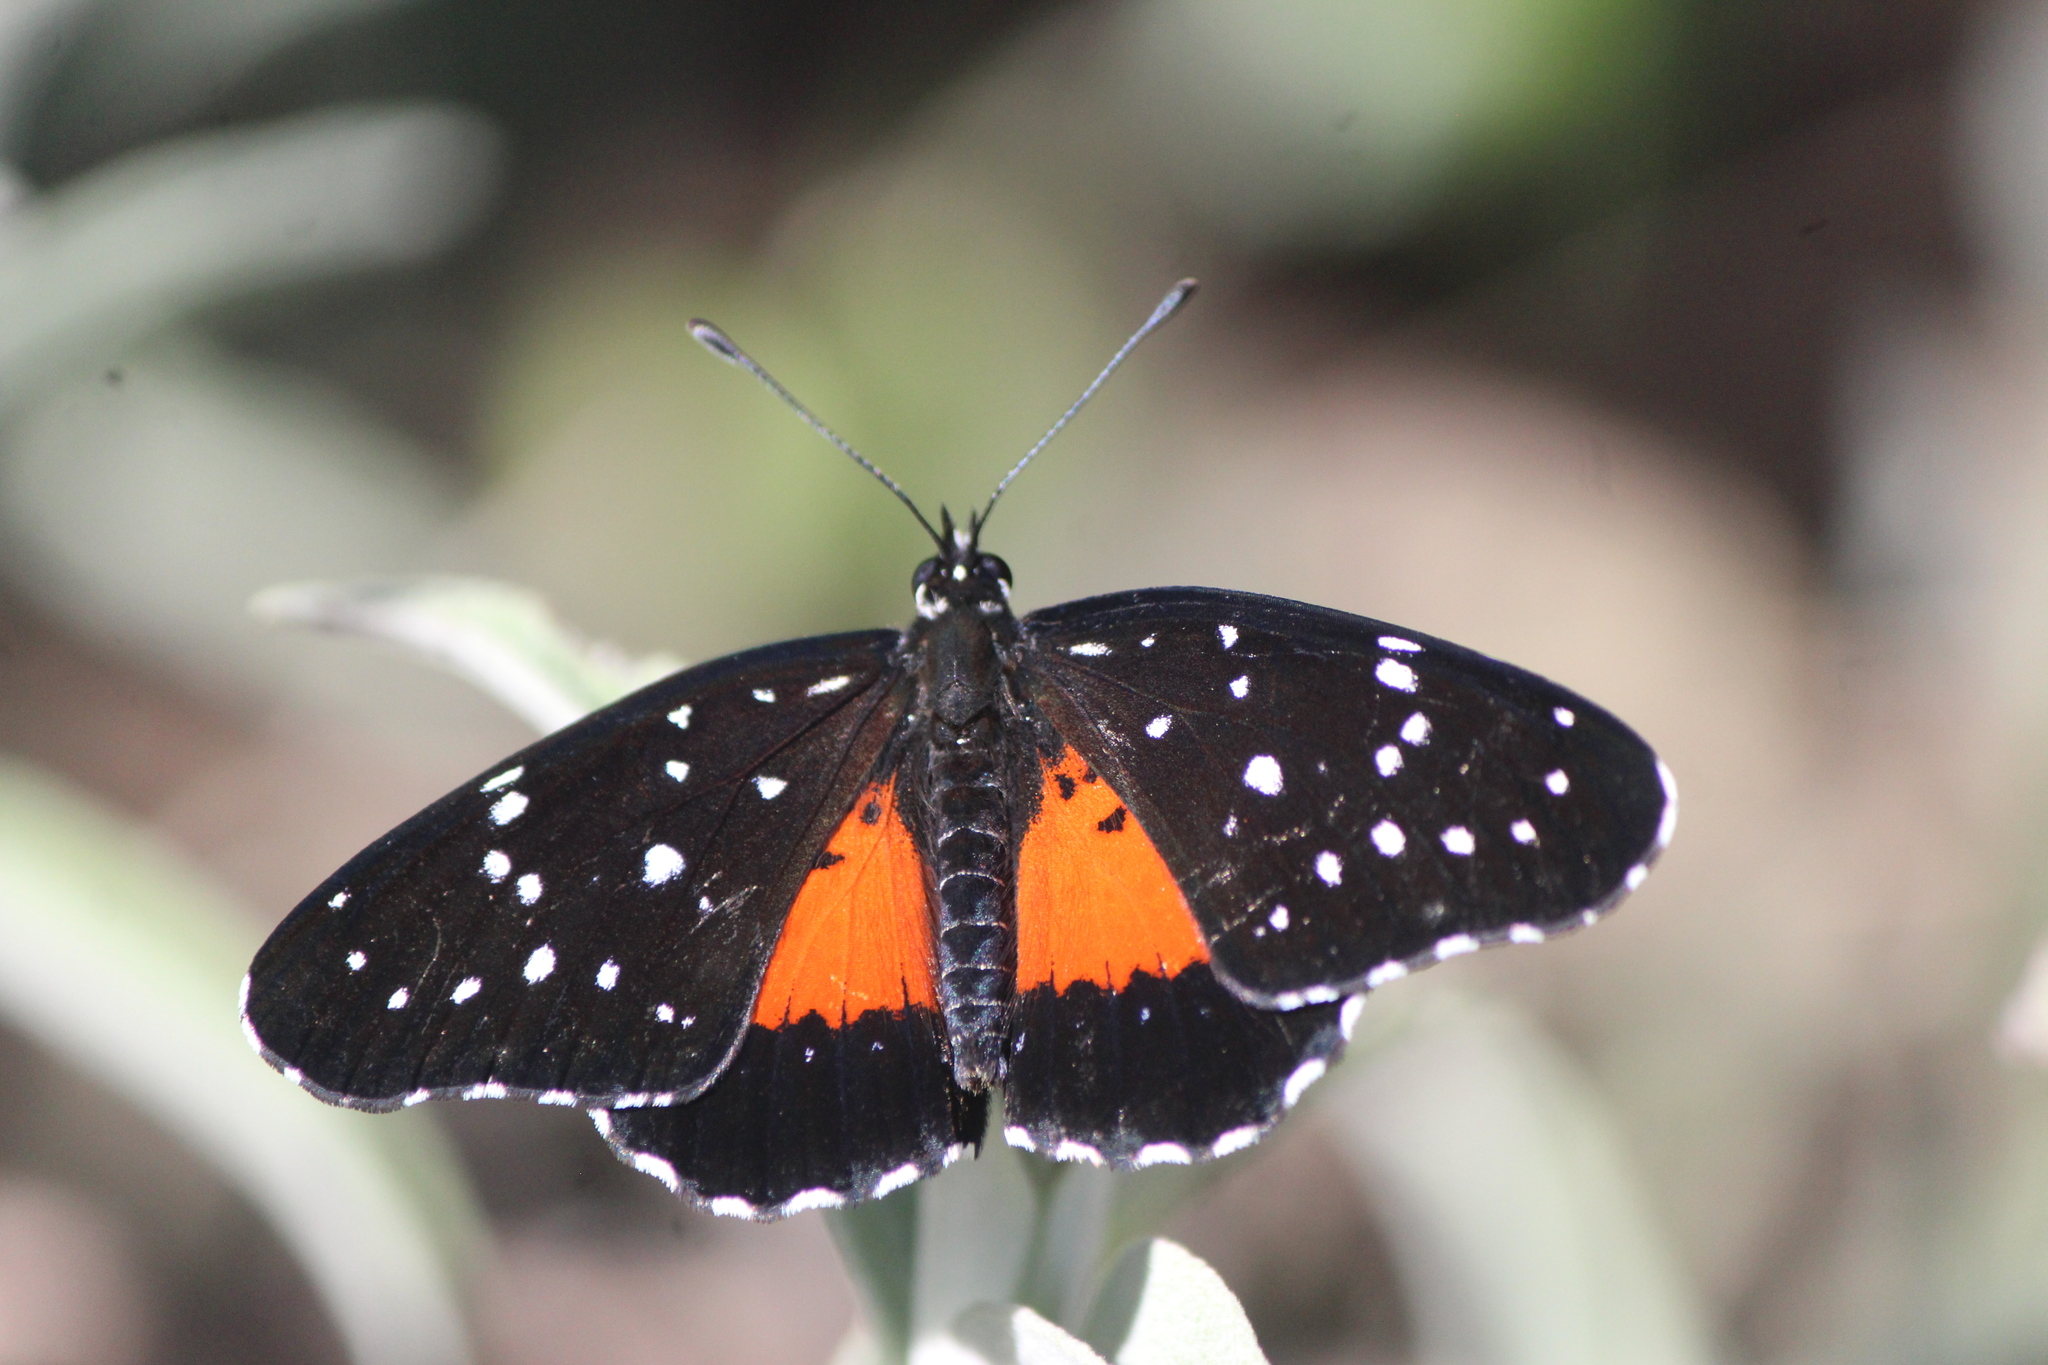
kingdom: Animalia
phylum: Arthropoda
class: Insecta
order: Lepidoptera
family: Nymphalidae
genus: Chlosyne
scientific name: Chlosyne janais
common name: Crimson patch
